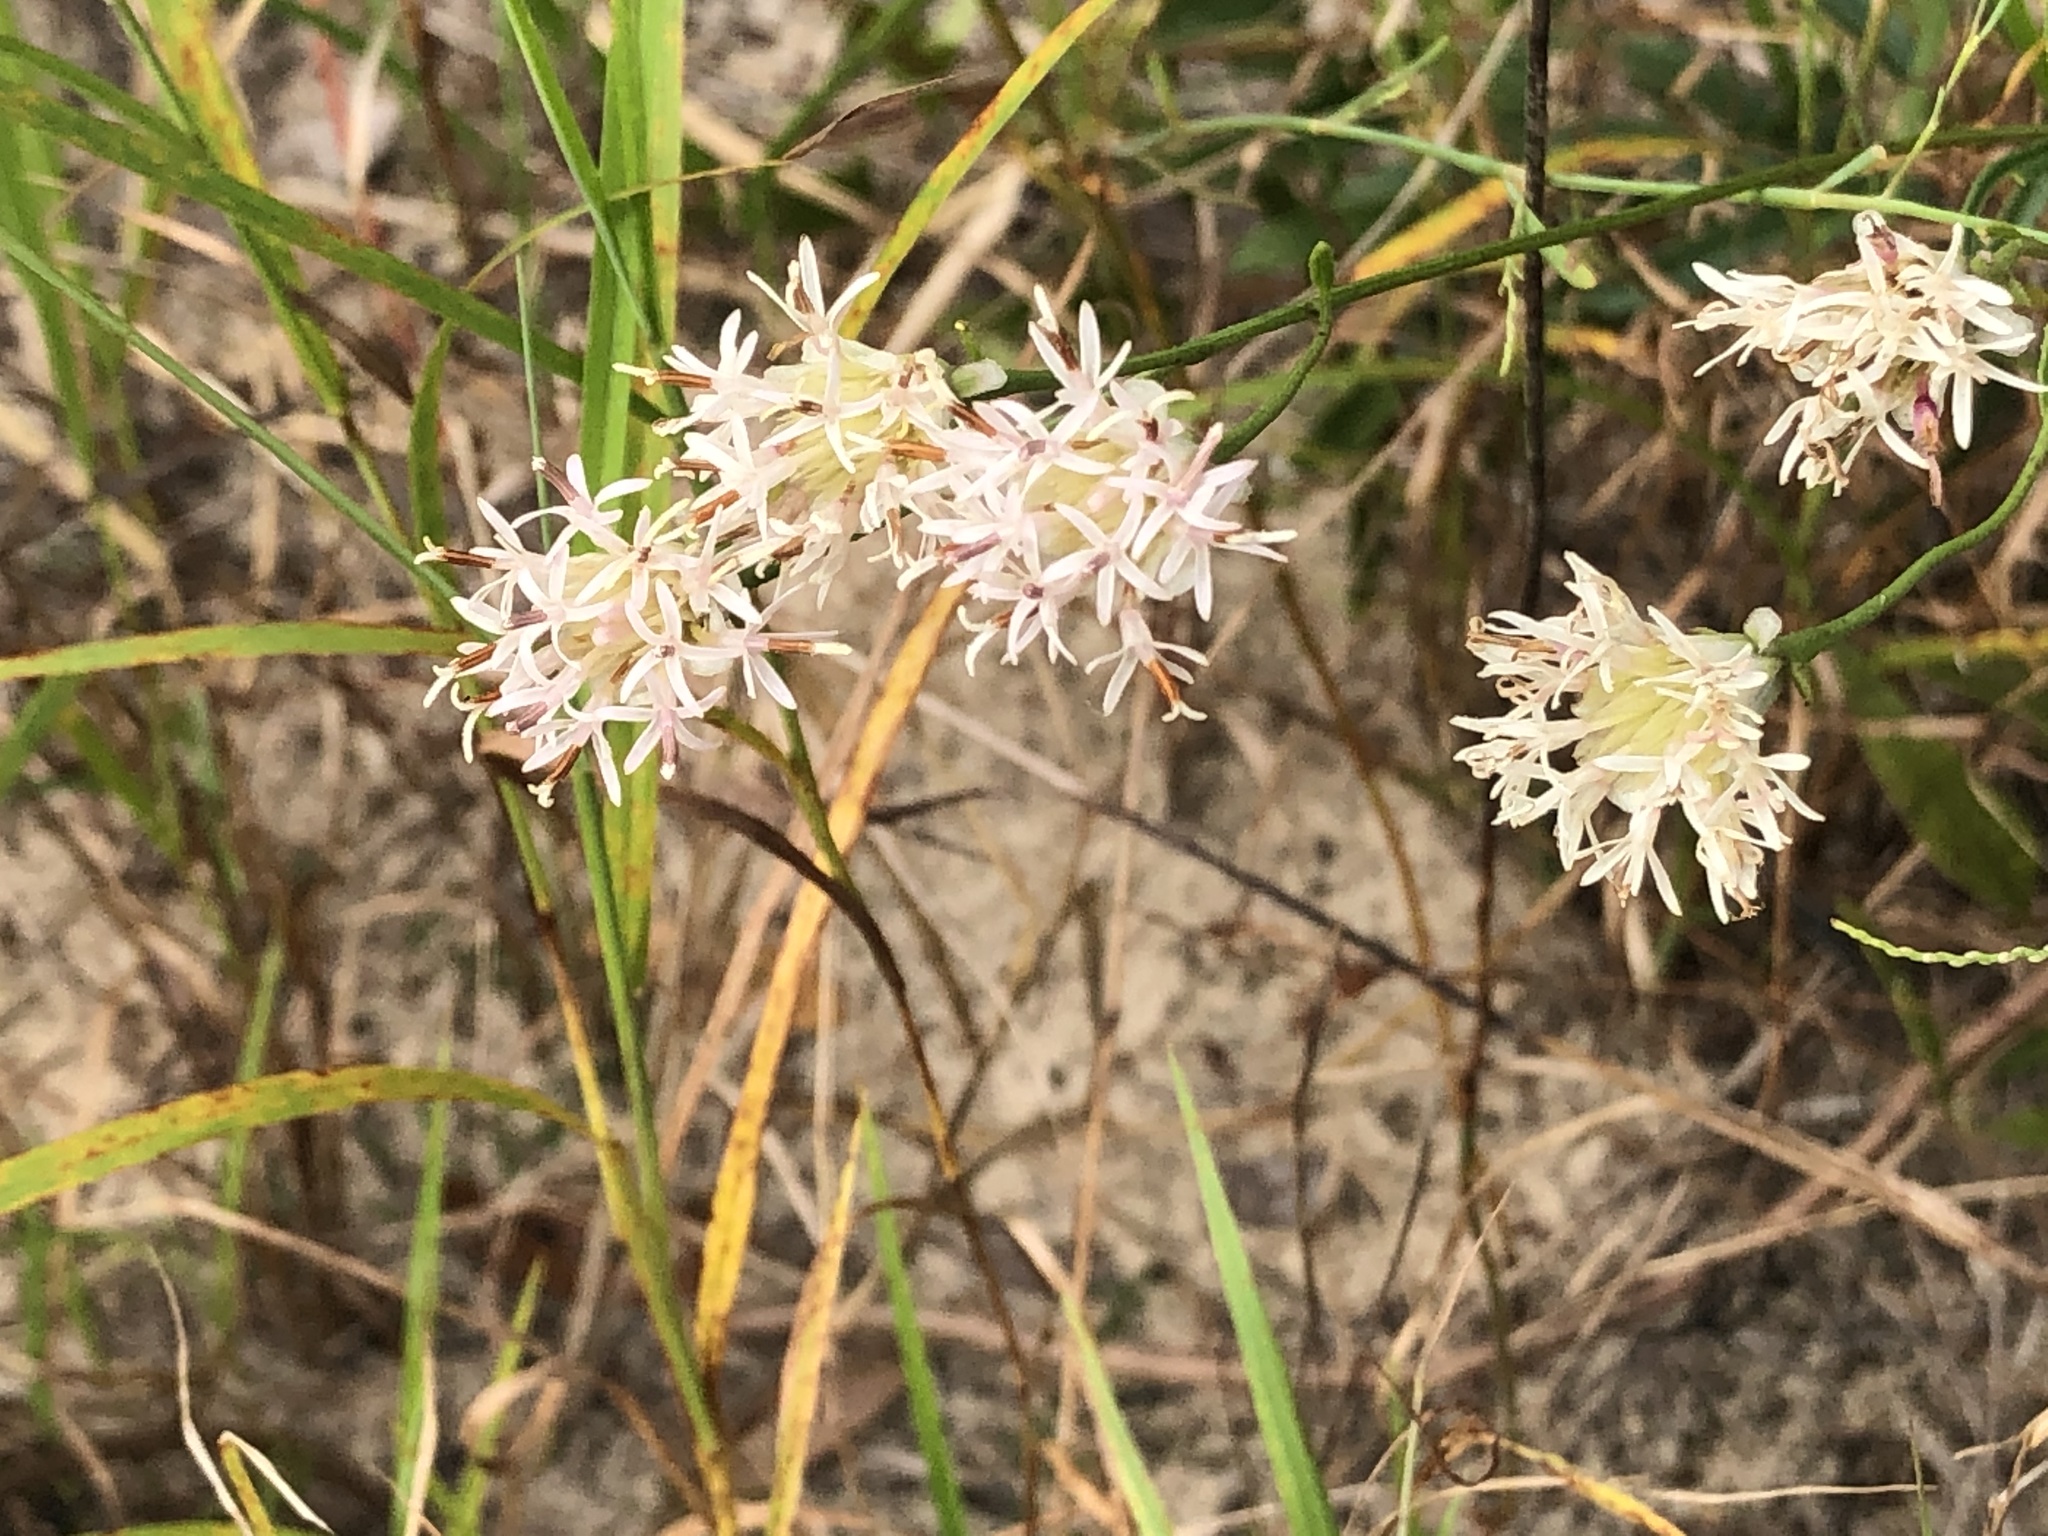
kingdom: Plantae
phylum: Tracheophyta
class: Magnoliopsida
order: Asterales
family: Asteraceae
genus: Palafoxia
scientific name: Palafoxia integrifolia
